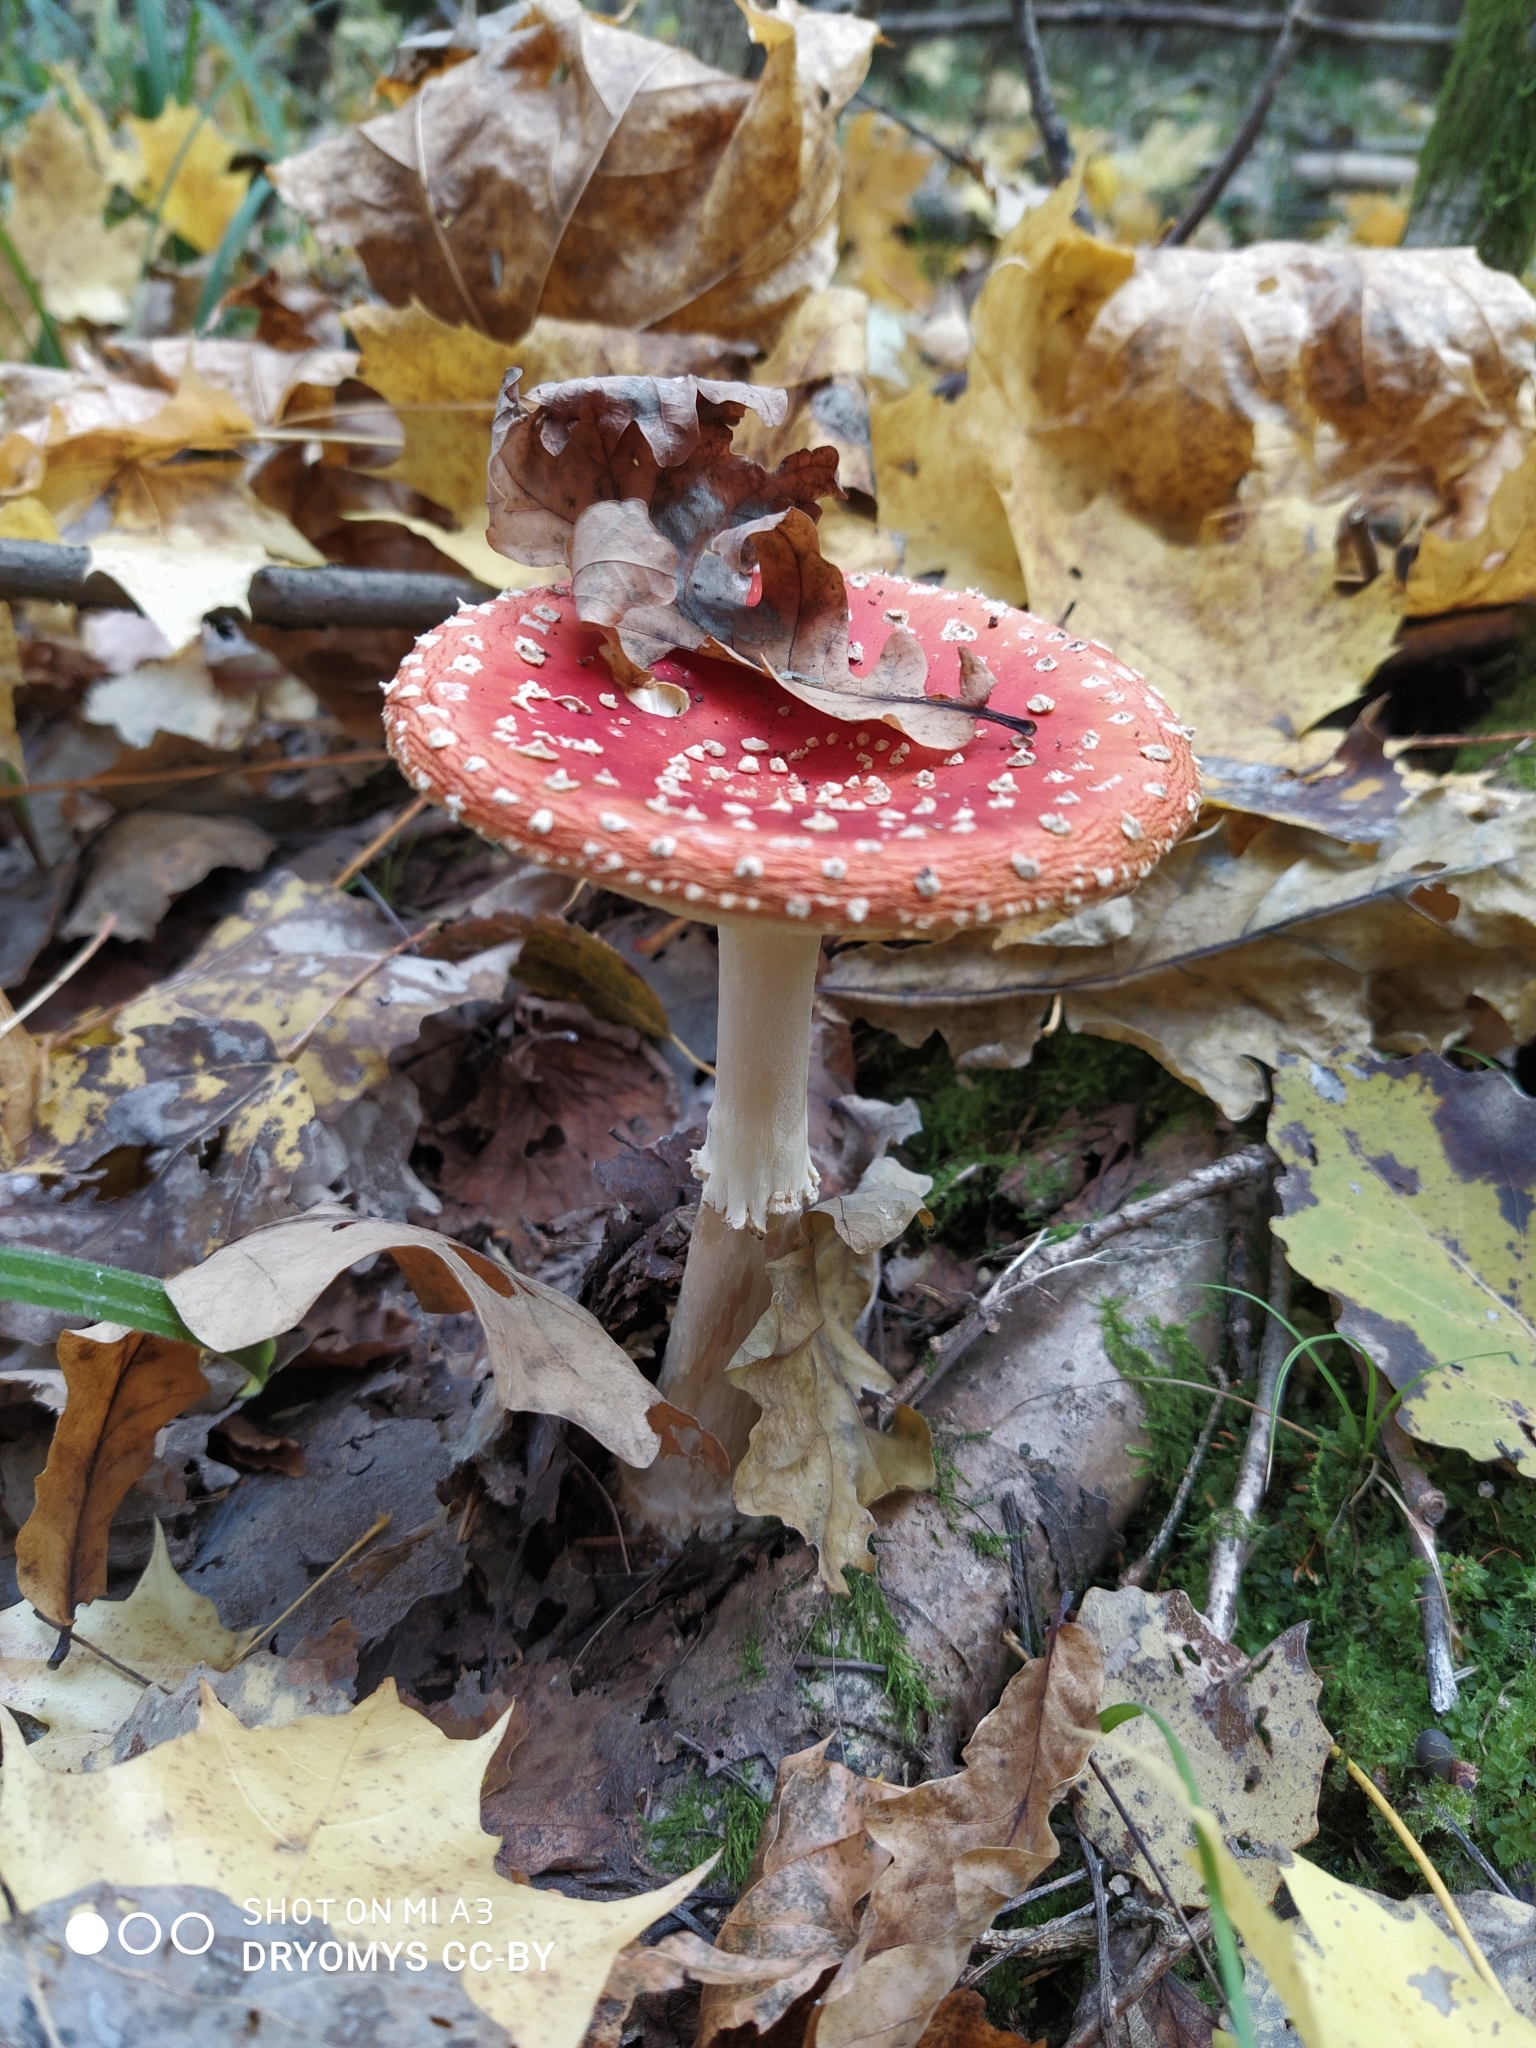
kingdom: Fungi
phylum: Basidiomycota
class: Agaricomycetes
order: Agaricales
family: Amanitaceae
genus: Amanita
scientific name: Amanita muscaria
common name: Fly agaric
